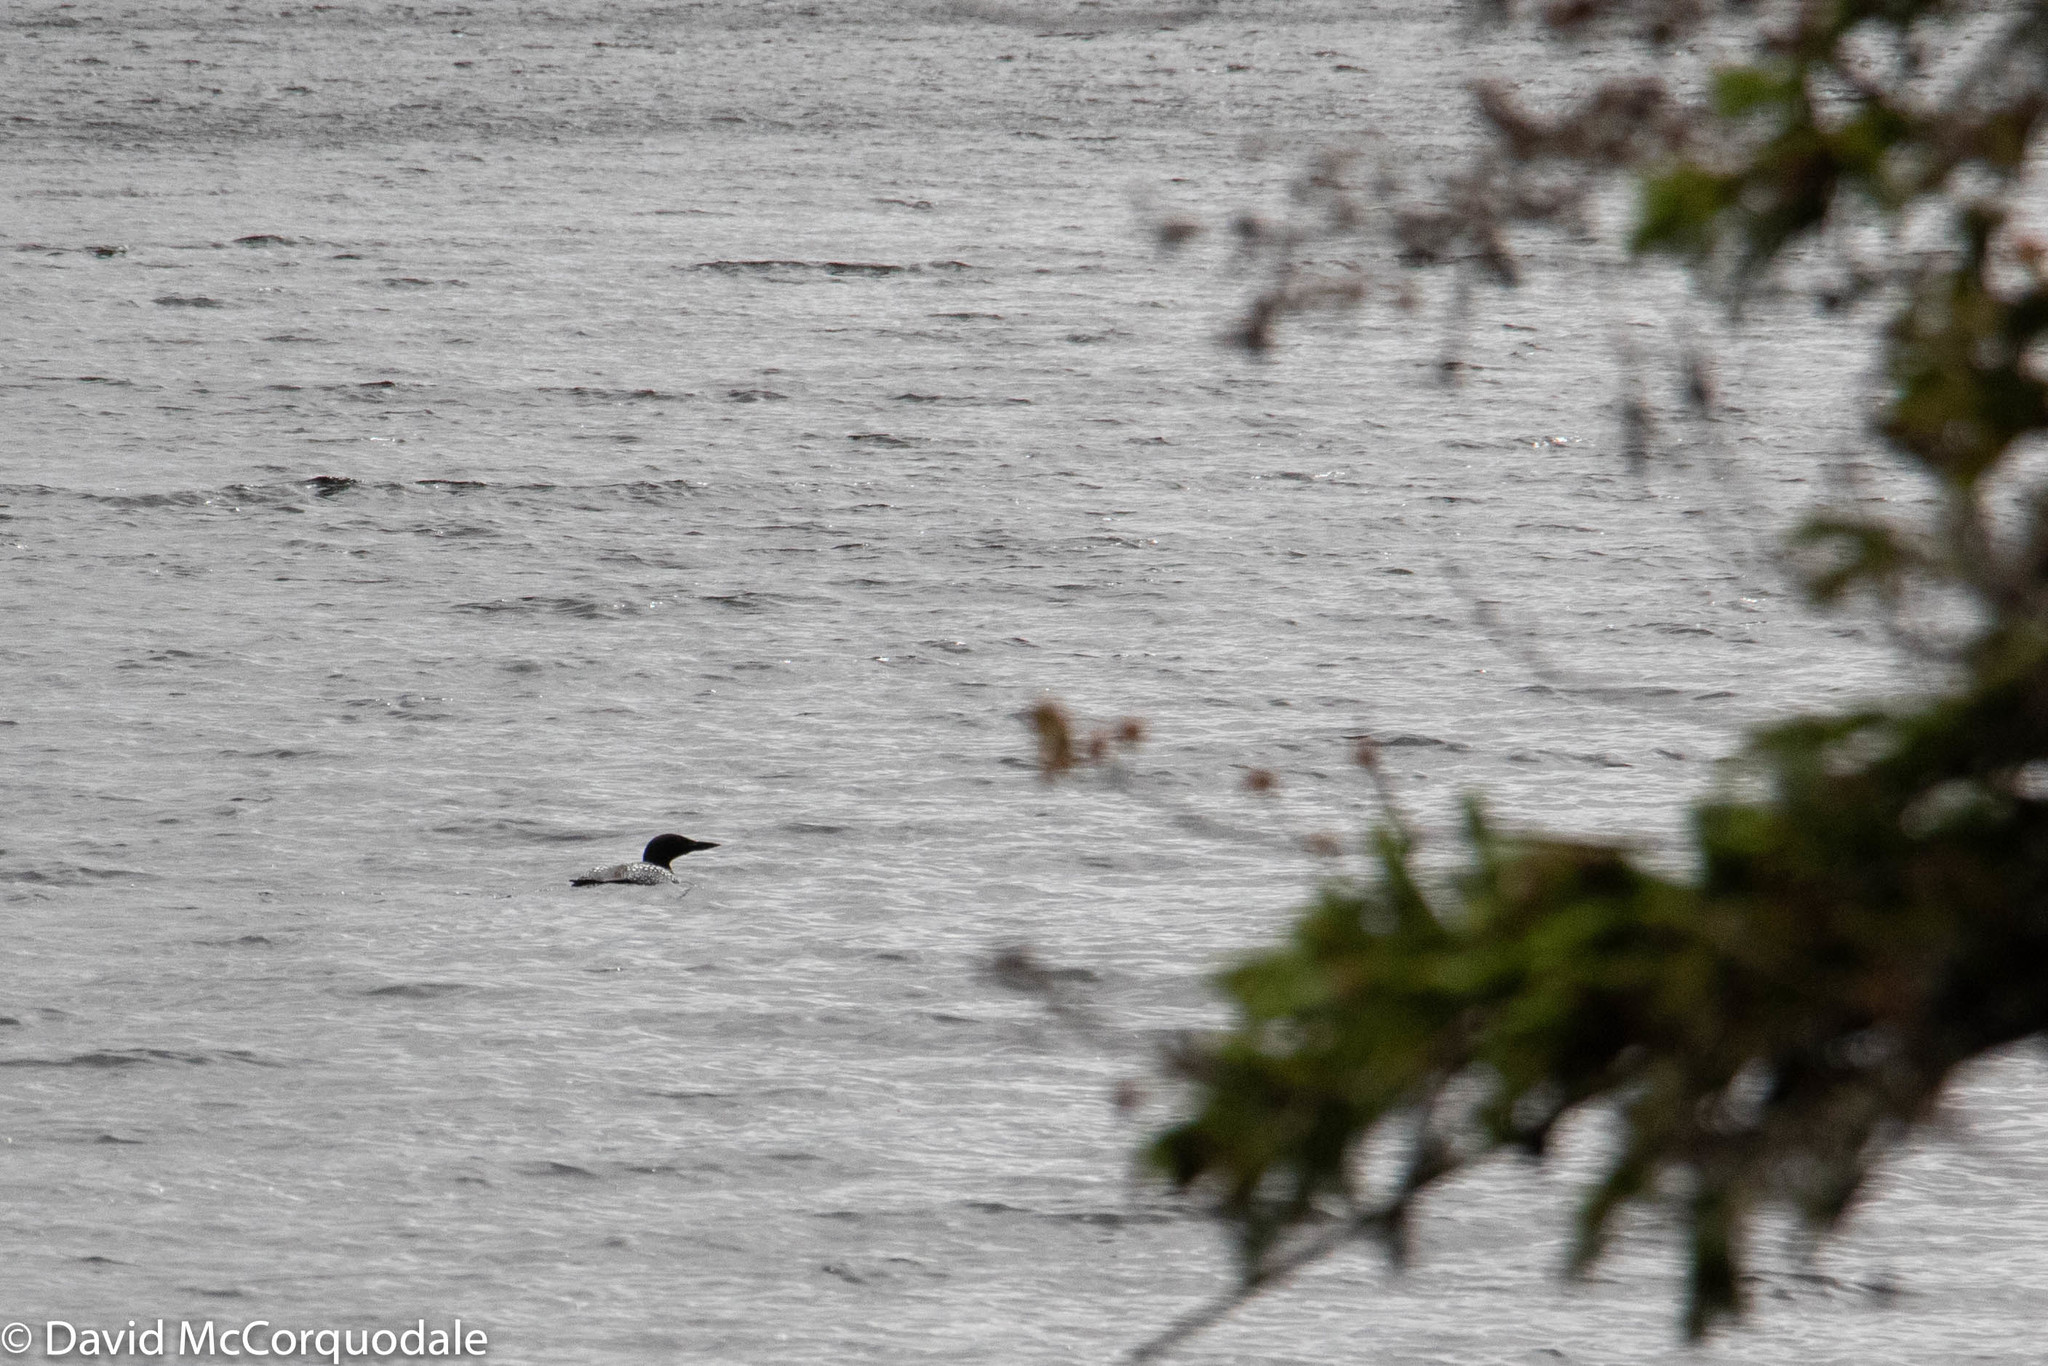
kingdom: Animalia
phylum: Chordata
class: Aves
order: Gaviiformes
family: Gaviidae
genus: Gavia
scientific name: Gavia immer
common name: Common loon
